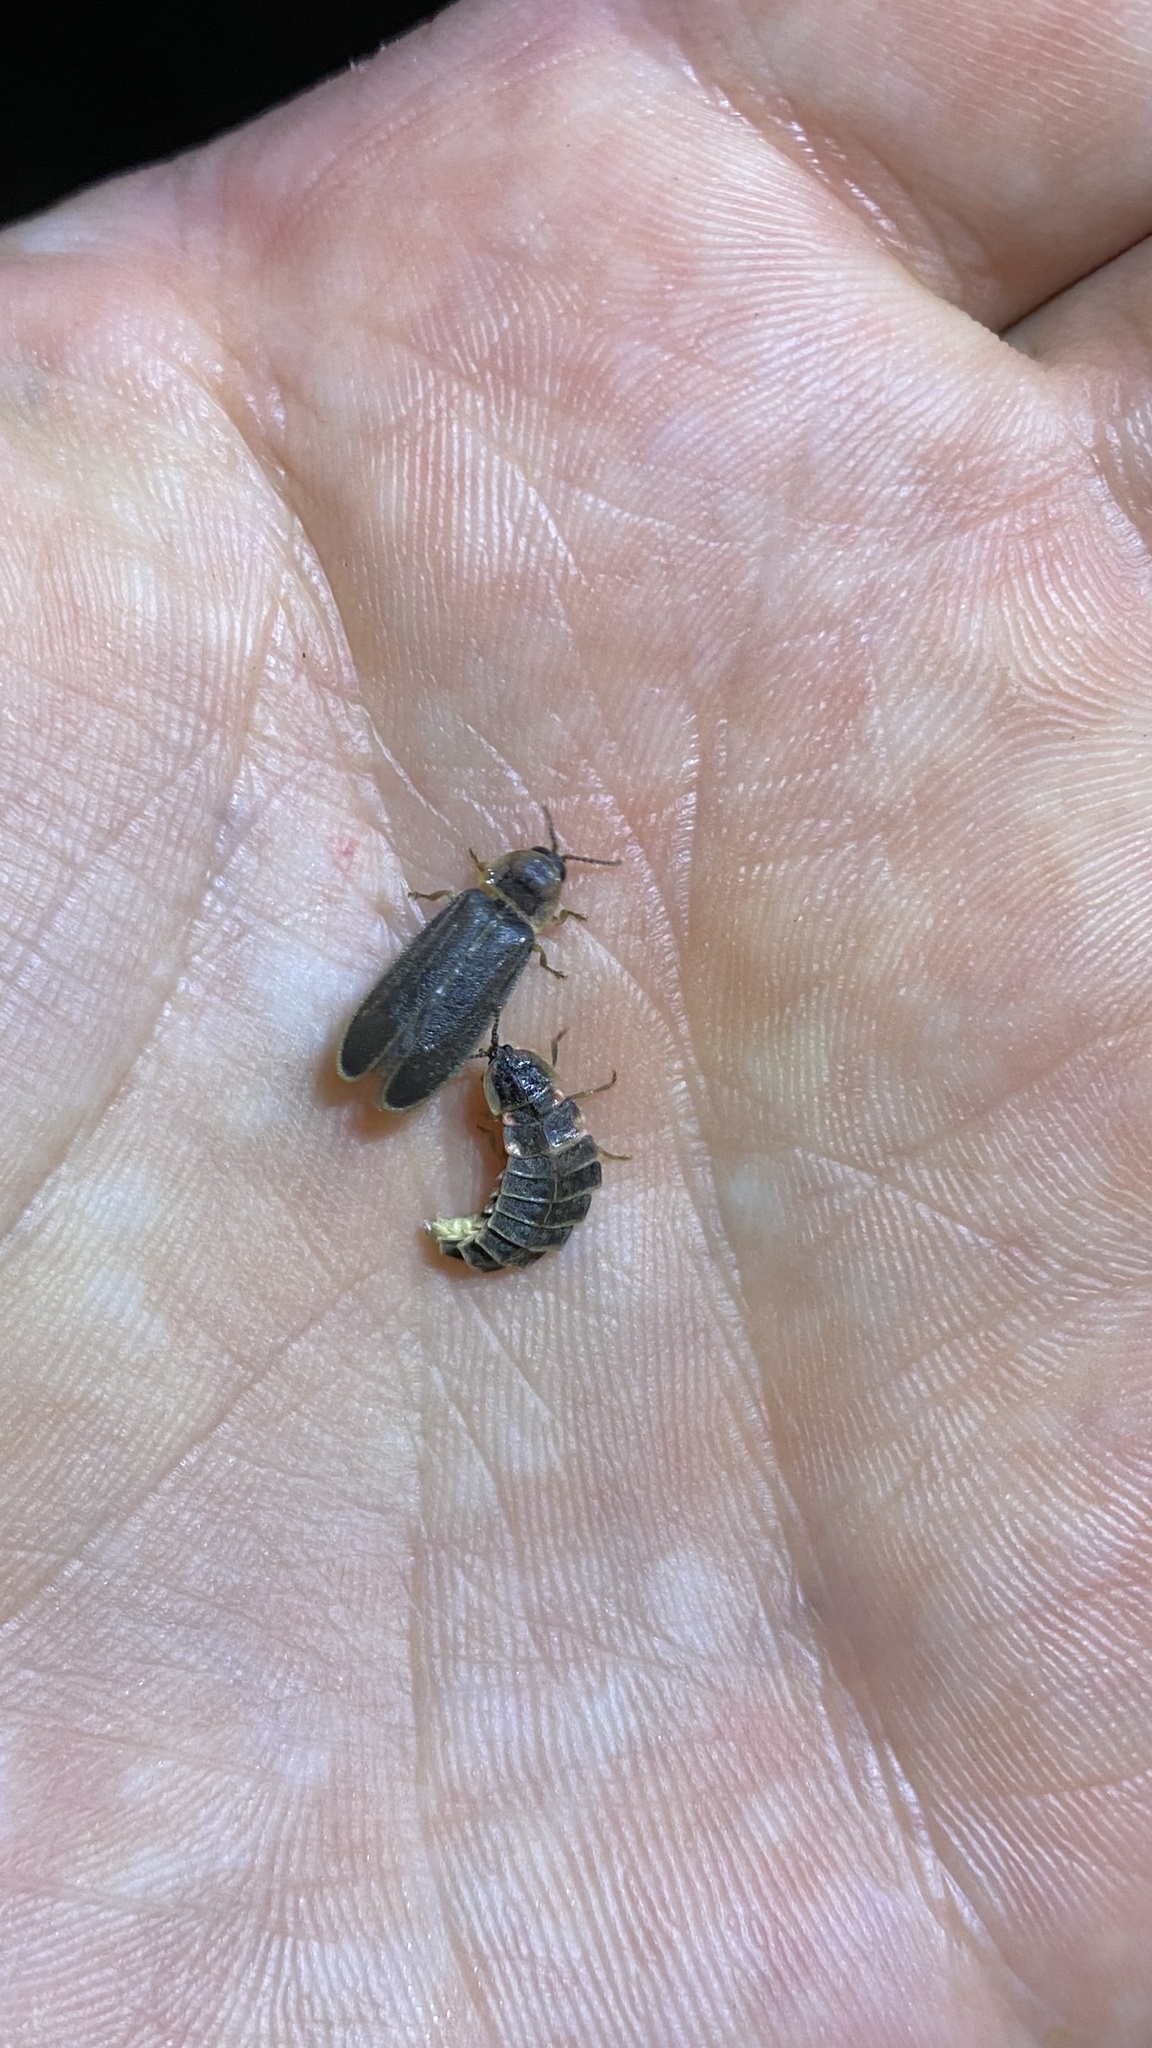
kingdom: Animalia
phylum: Arthropoda
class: Insecta
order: Coleoptera
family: Lampyridae
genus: Lampyris
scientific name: Lampyris noctiluca
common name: Glow-worm
